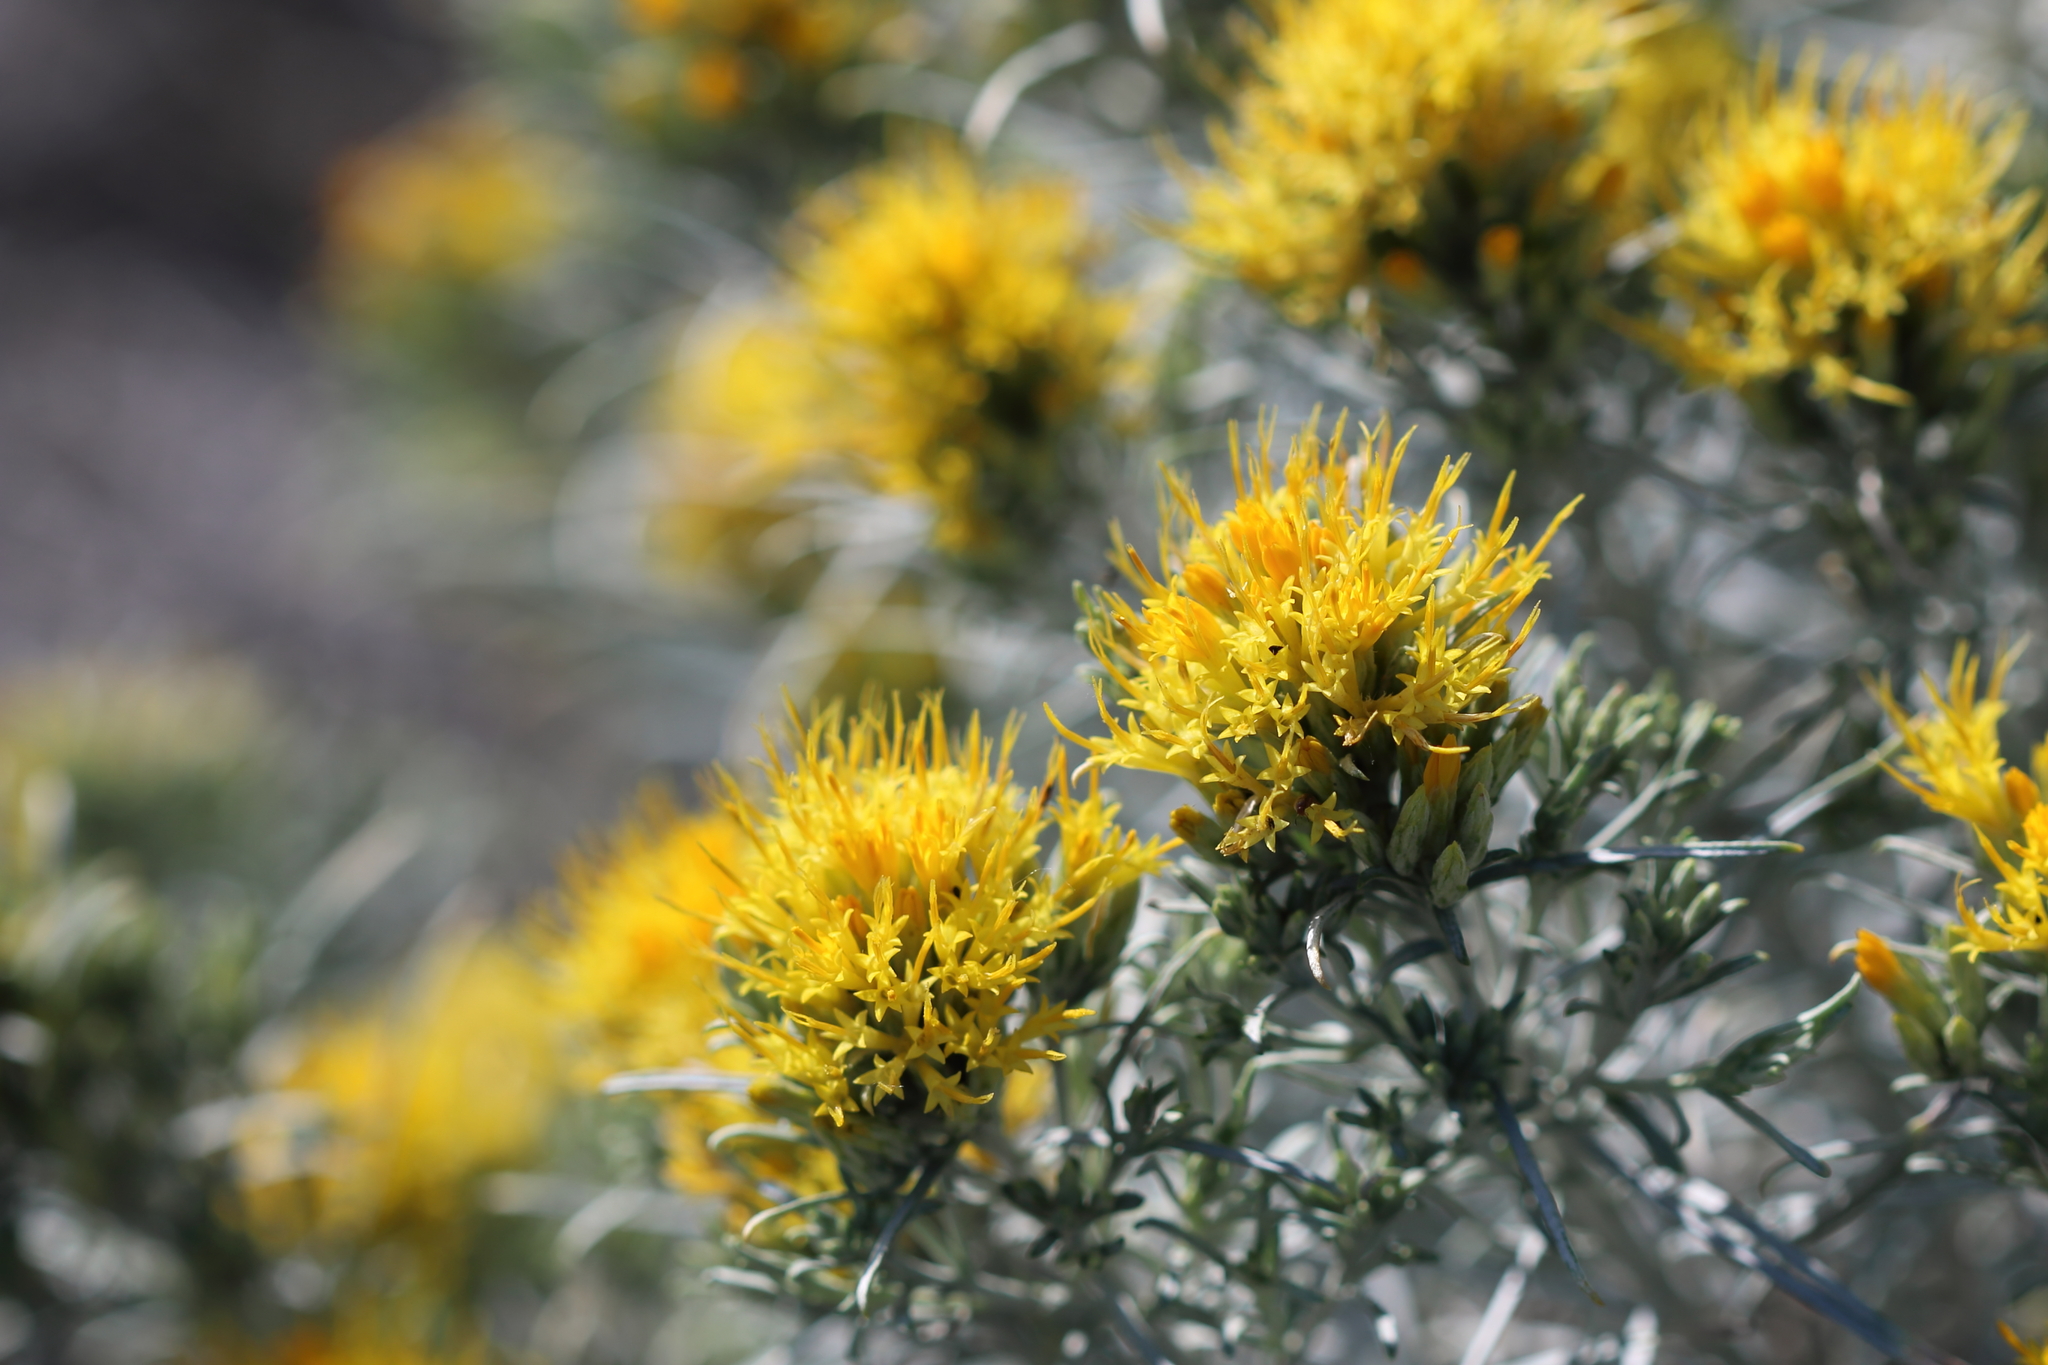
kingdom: Plantae
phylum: Tracheophyta
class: Magnoliopsida
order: Asterales
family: Asteraceae
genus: Ericameria
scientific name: Ericameria nauseosa
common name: Rubber rabbitbrush
